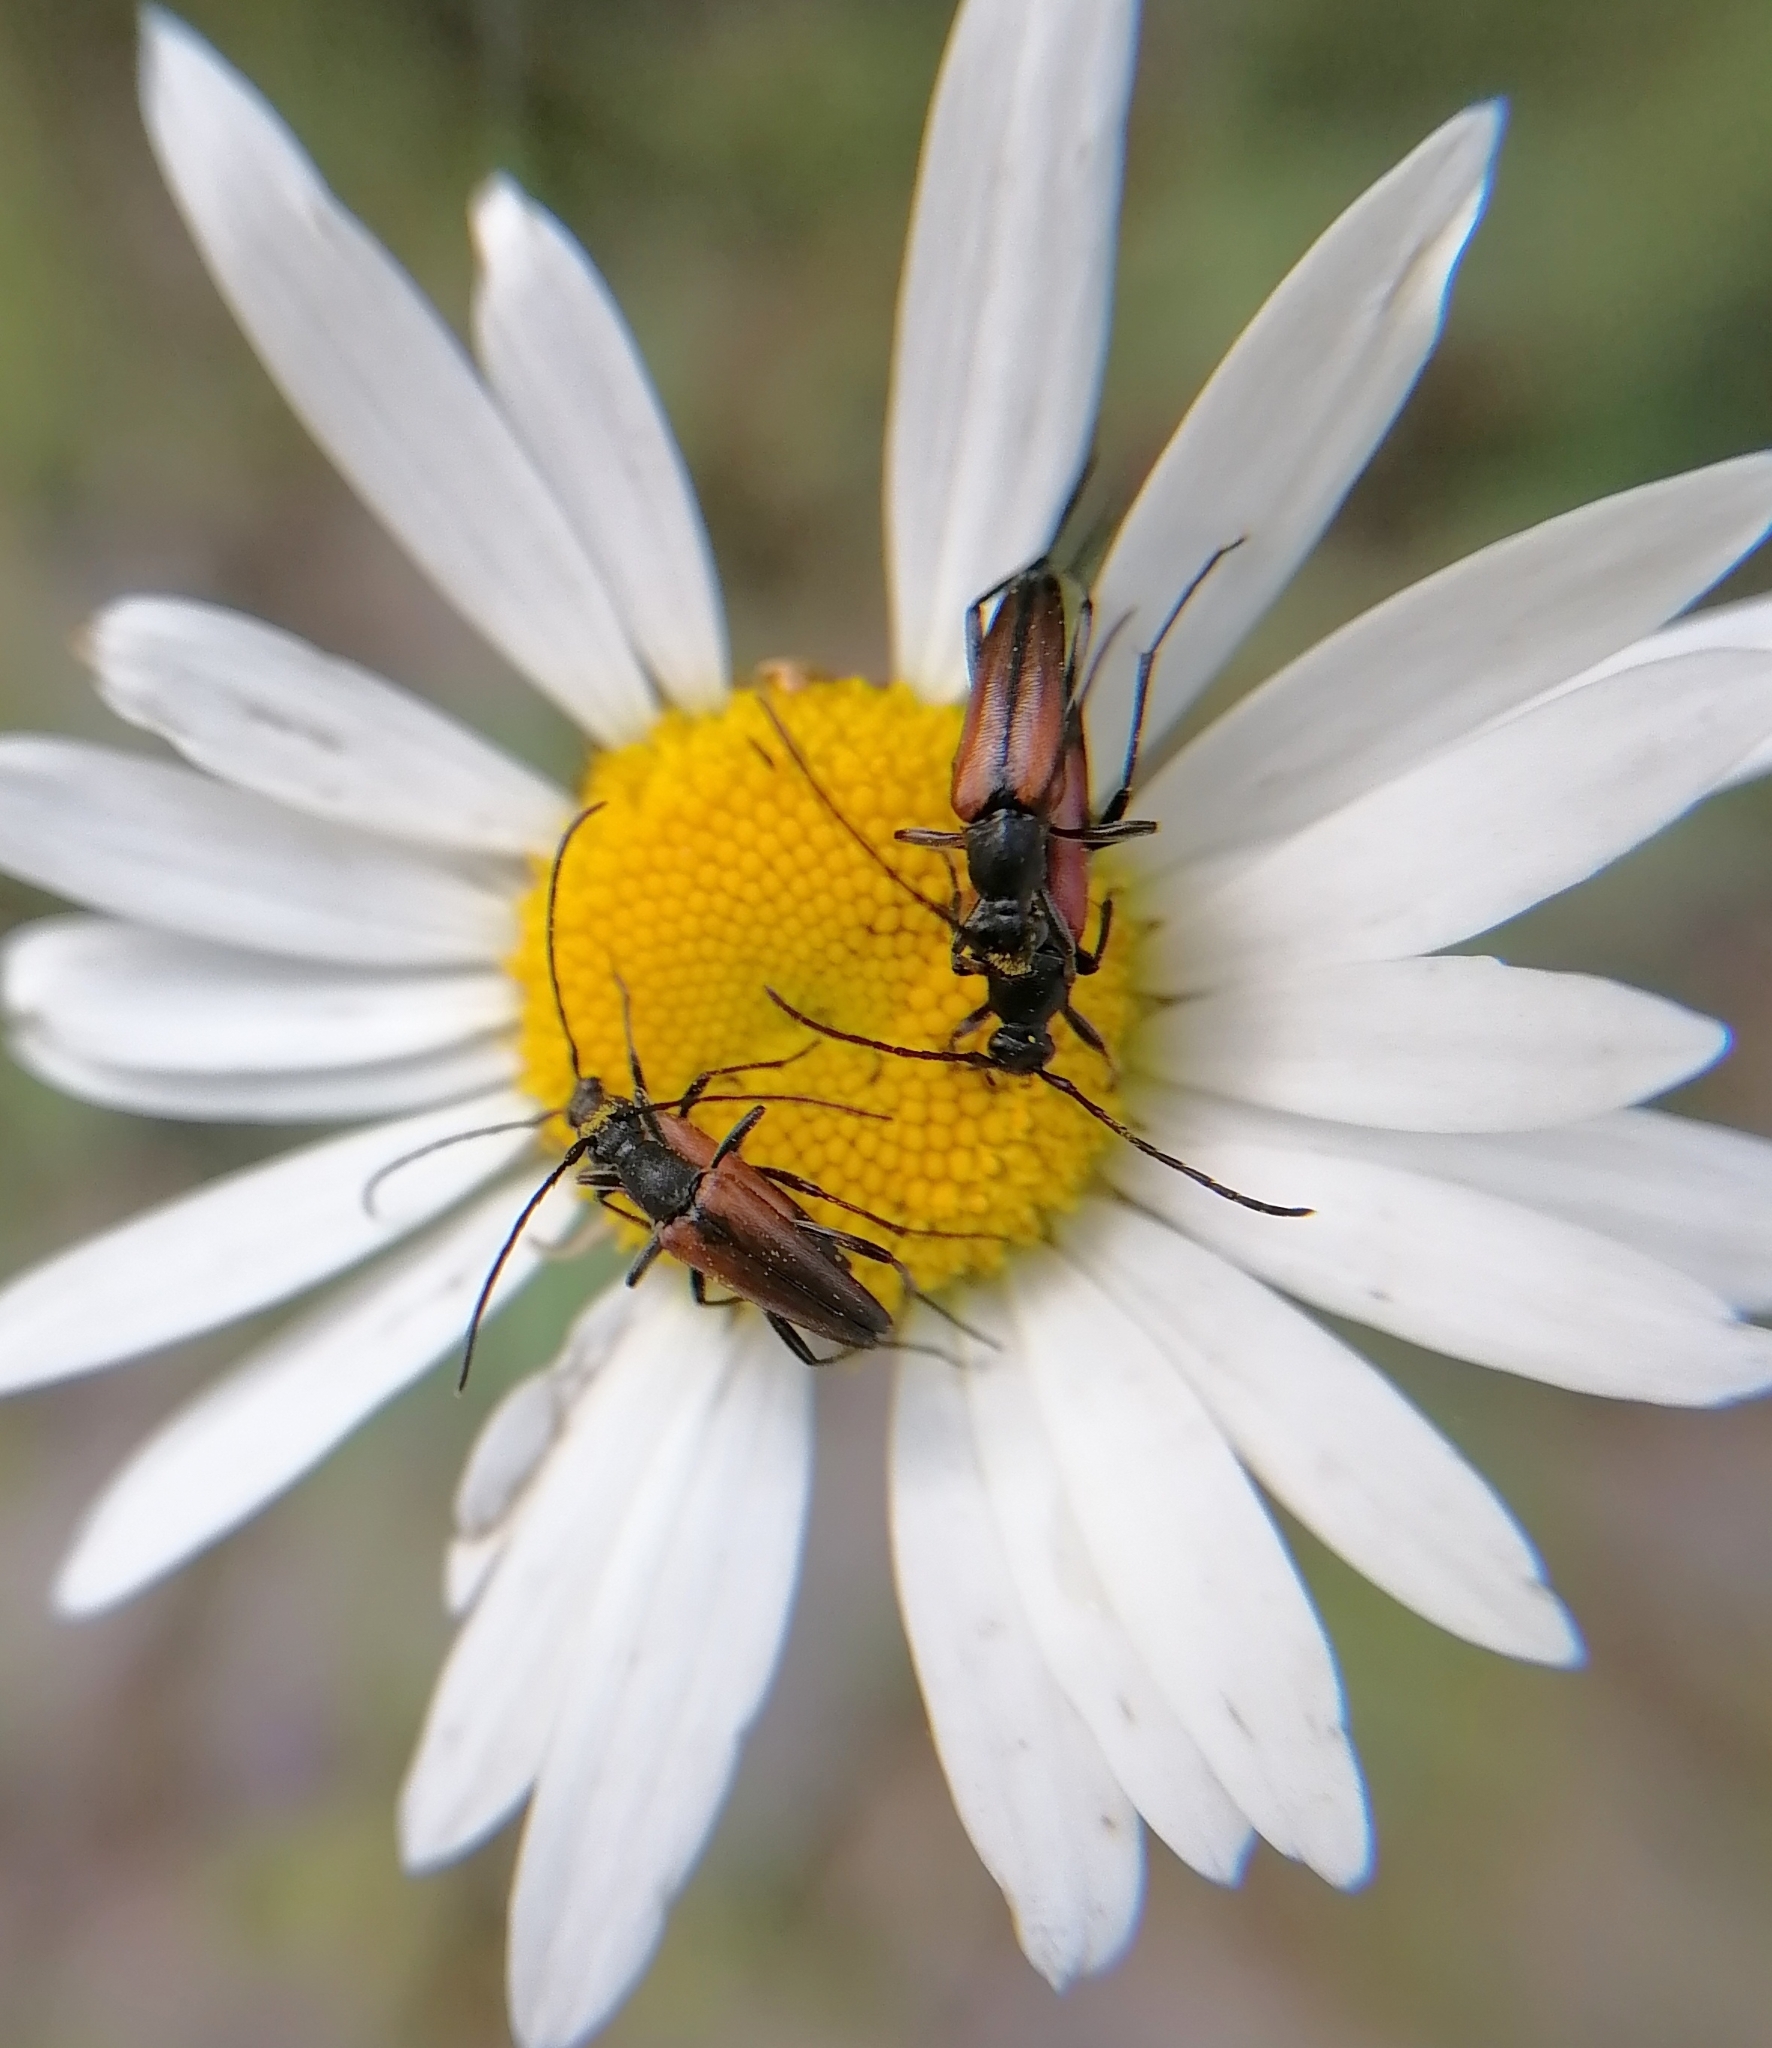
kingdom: Animalia
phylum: Arthropoda
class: Insecta
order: Coleoptera
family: Cerambycidae
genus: Stenurella
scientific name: Stenurella melanura
